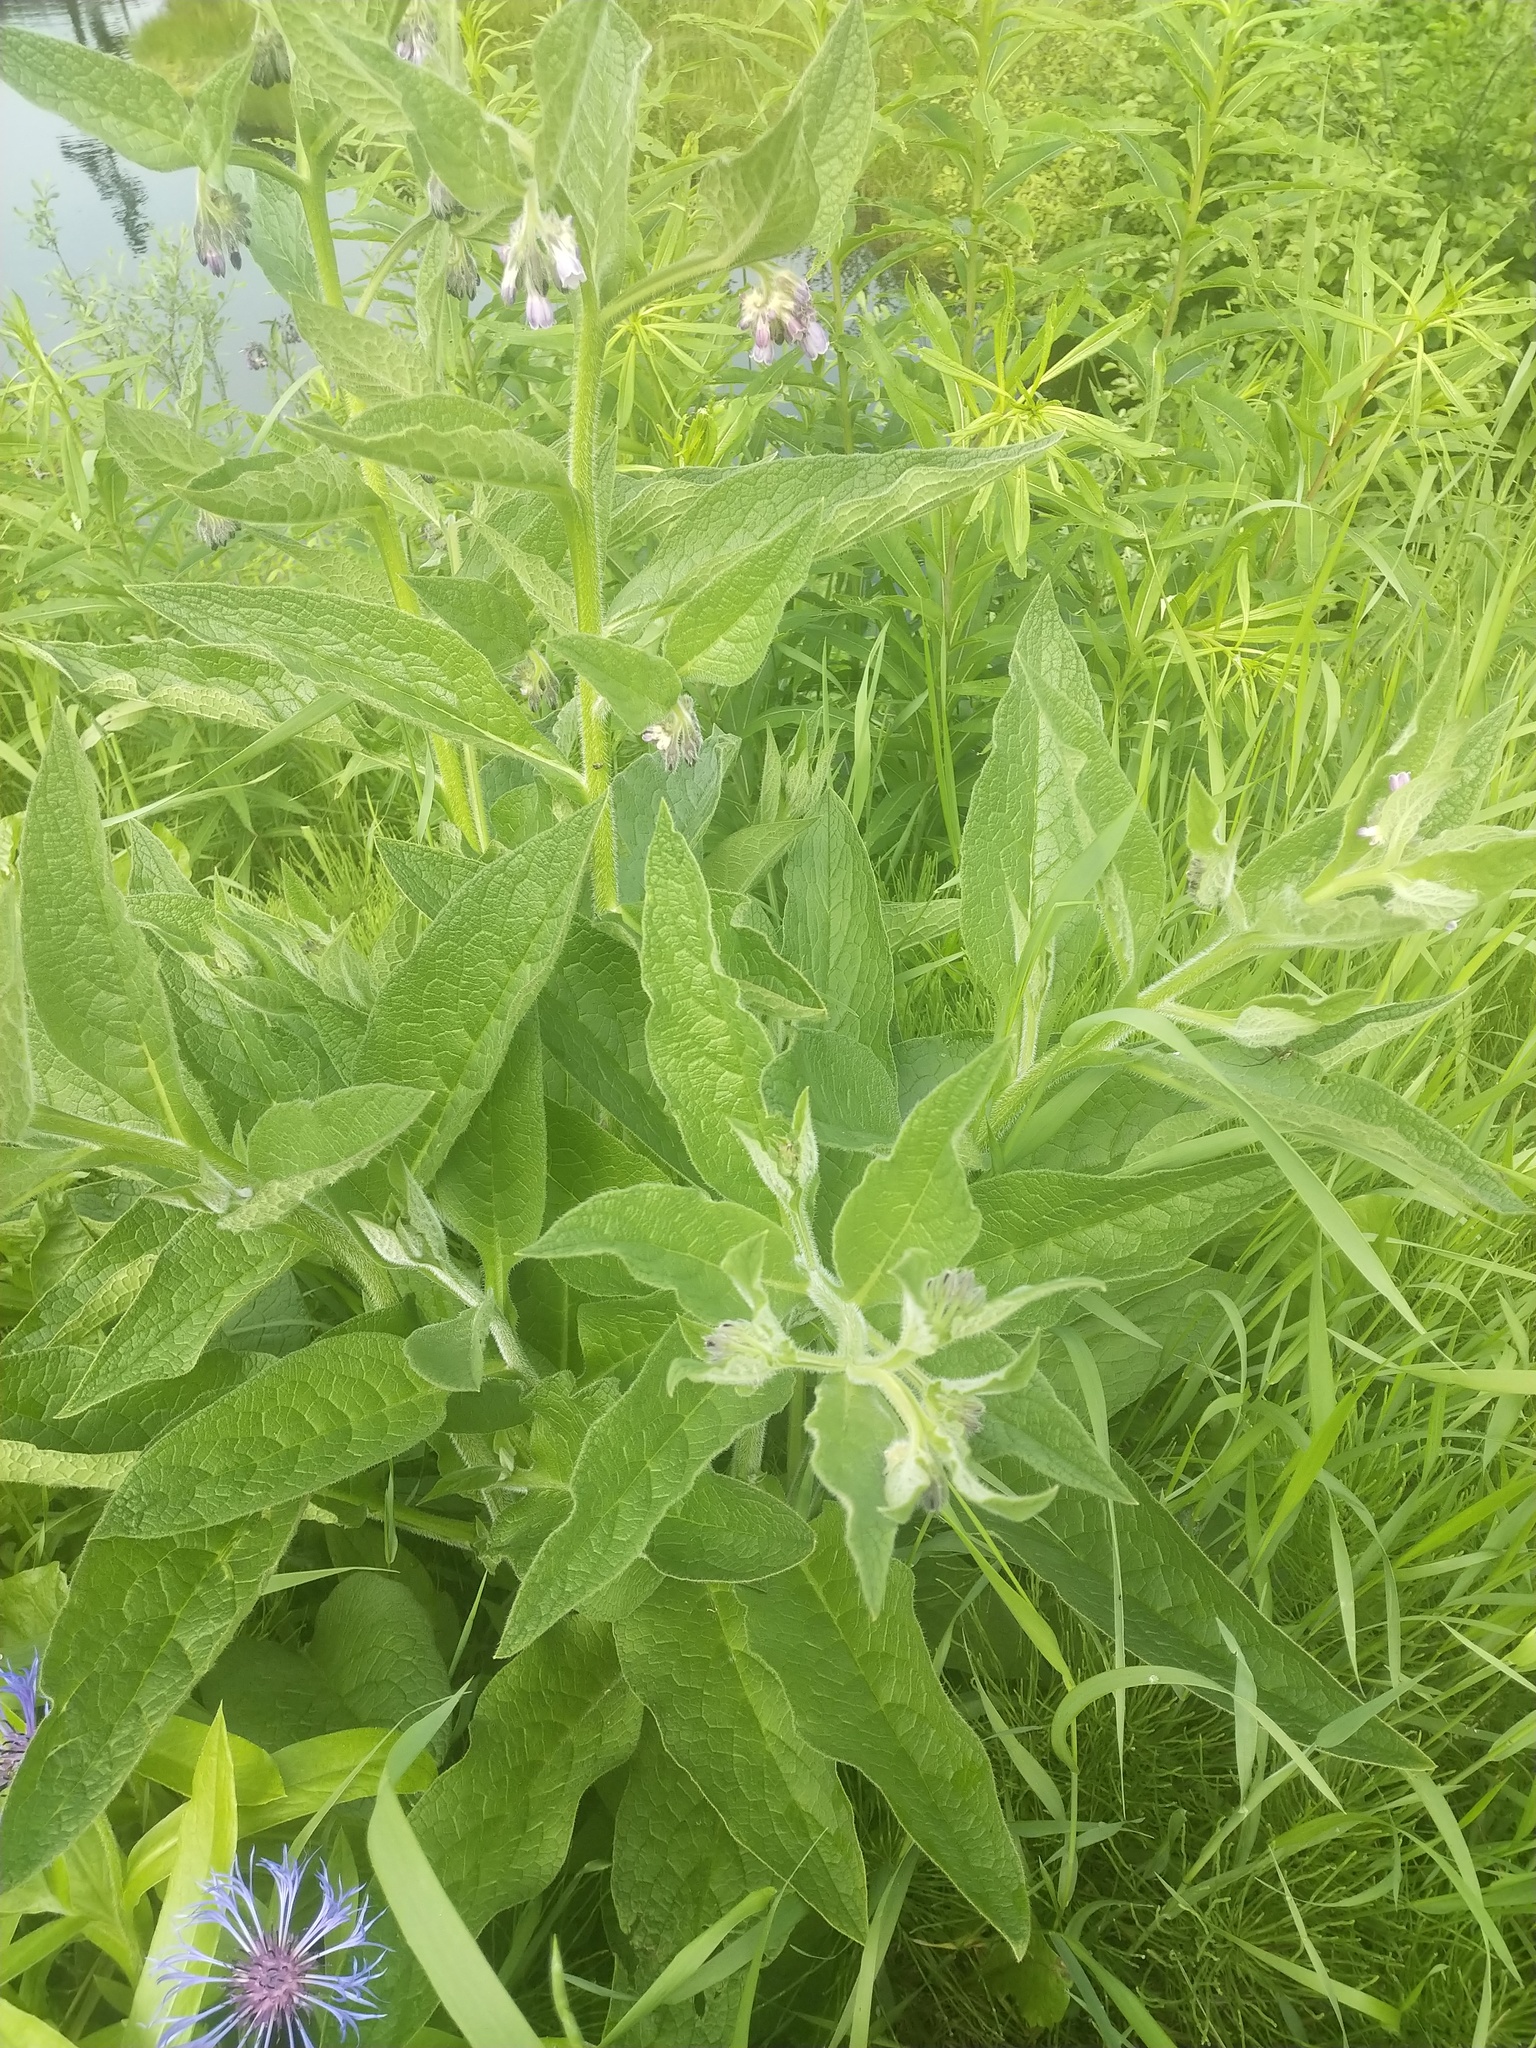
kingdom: Plantae
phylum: Tracheophyta
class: Magnoliopsida
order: Boraginales
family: Boraginaceae
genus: Symphytum
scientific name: Symphytum officinale
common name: Common comfrey
